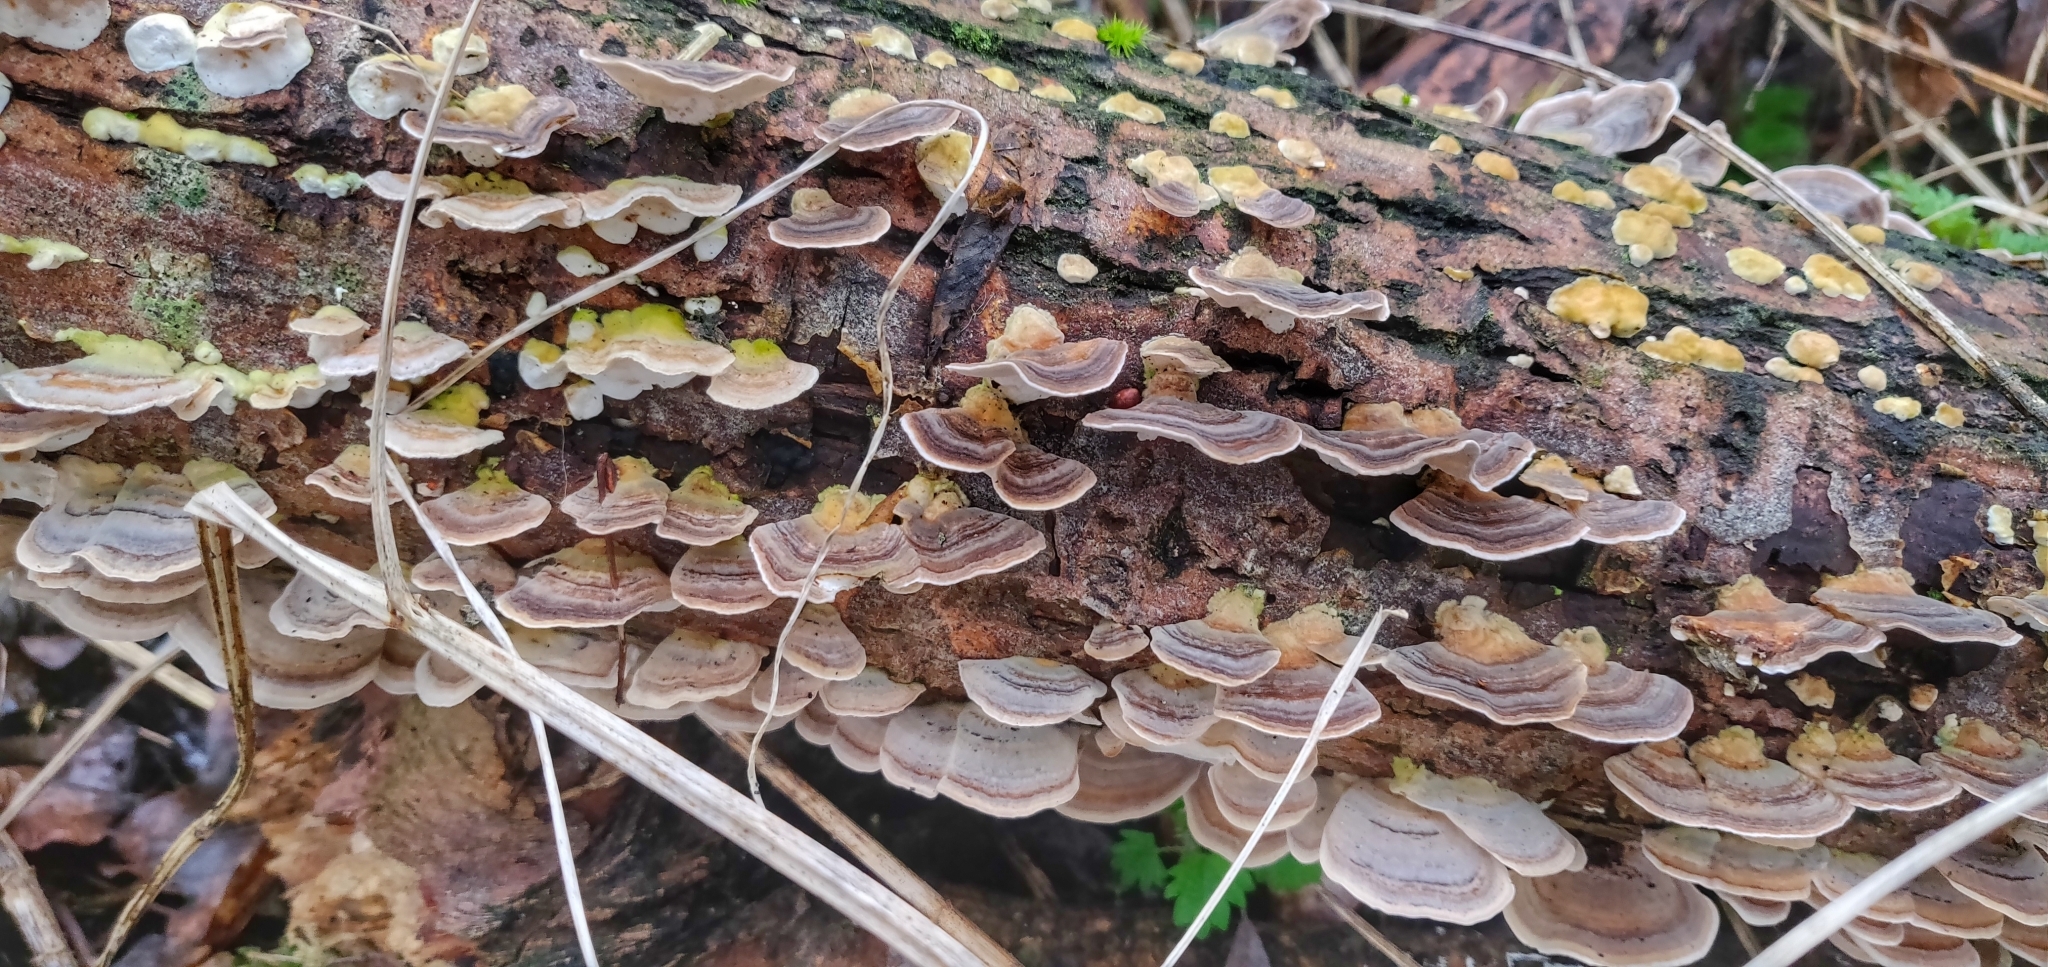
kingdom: Fungi
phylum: Basidiomycota
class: Agaricomycetes
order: Polyporales
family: Polyporaceae
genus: Trametes
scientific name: Trametes versicolor
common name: Turkeytail
